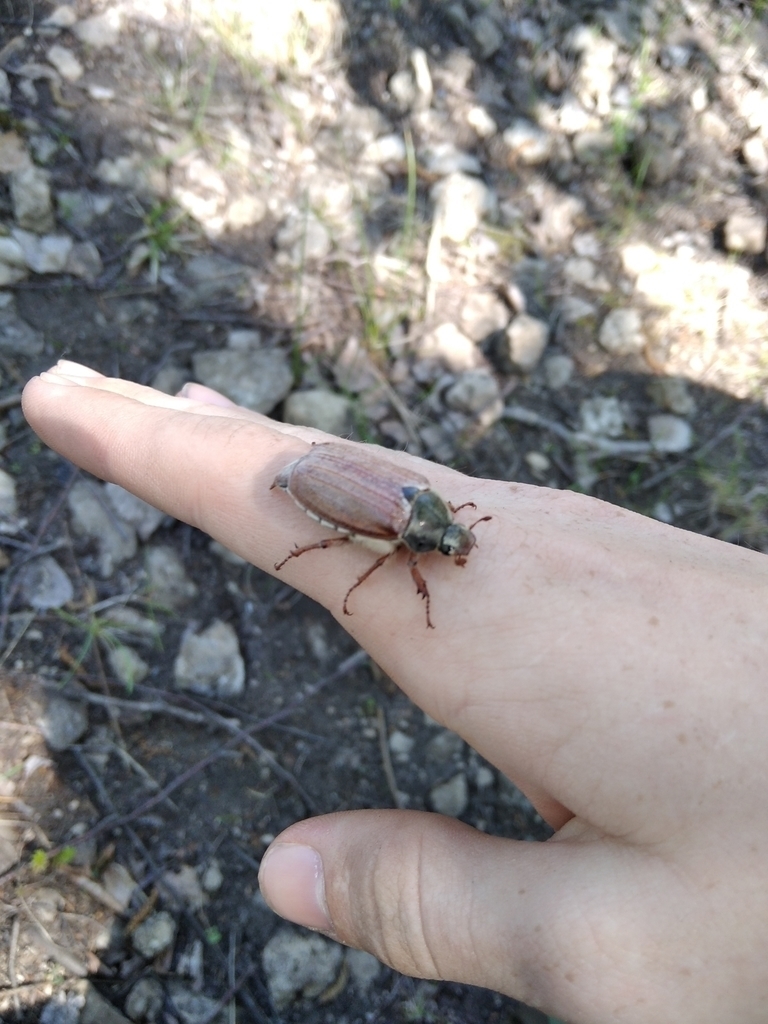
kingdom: Animalia
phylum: Arthropoda
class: Insecta
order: Coleoptera
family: Scarabaeidae
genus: Melolontha
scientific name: Melolontha melolontha
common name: Cockchafer maybeetle
